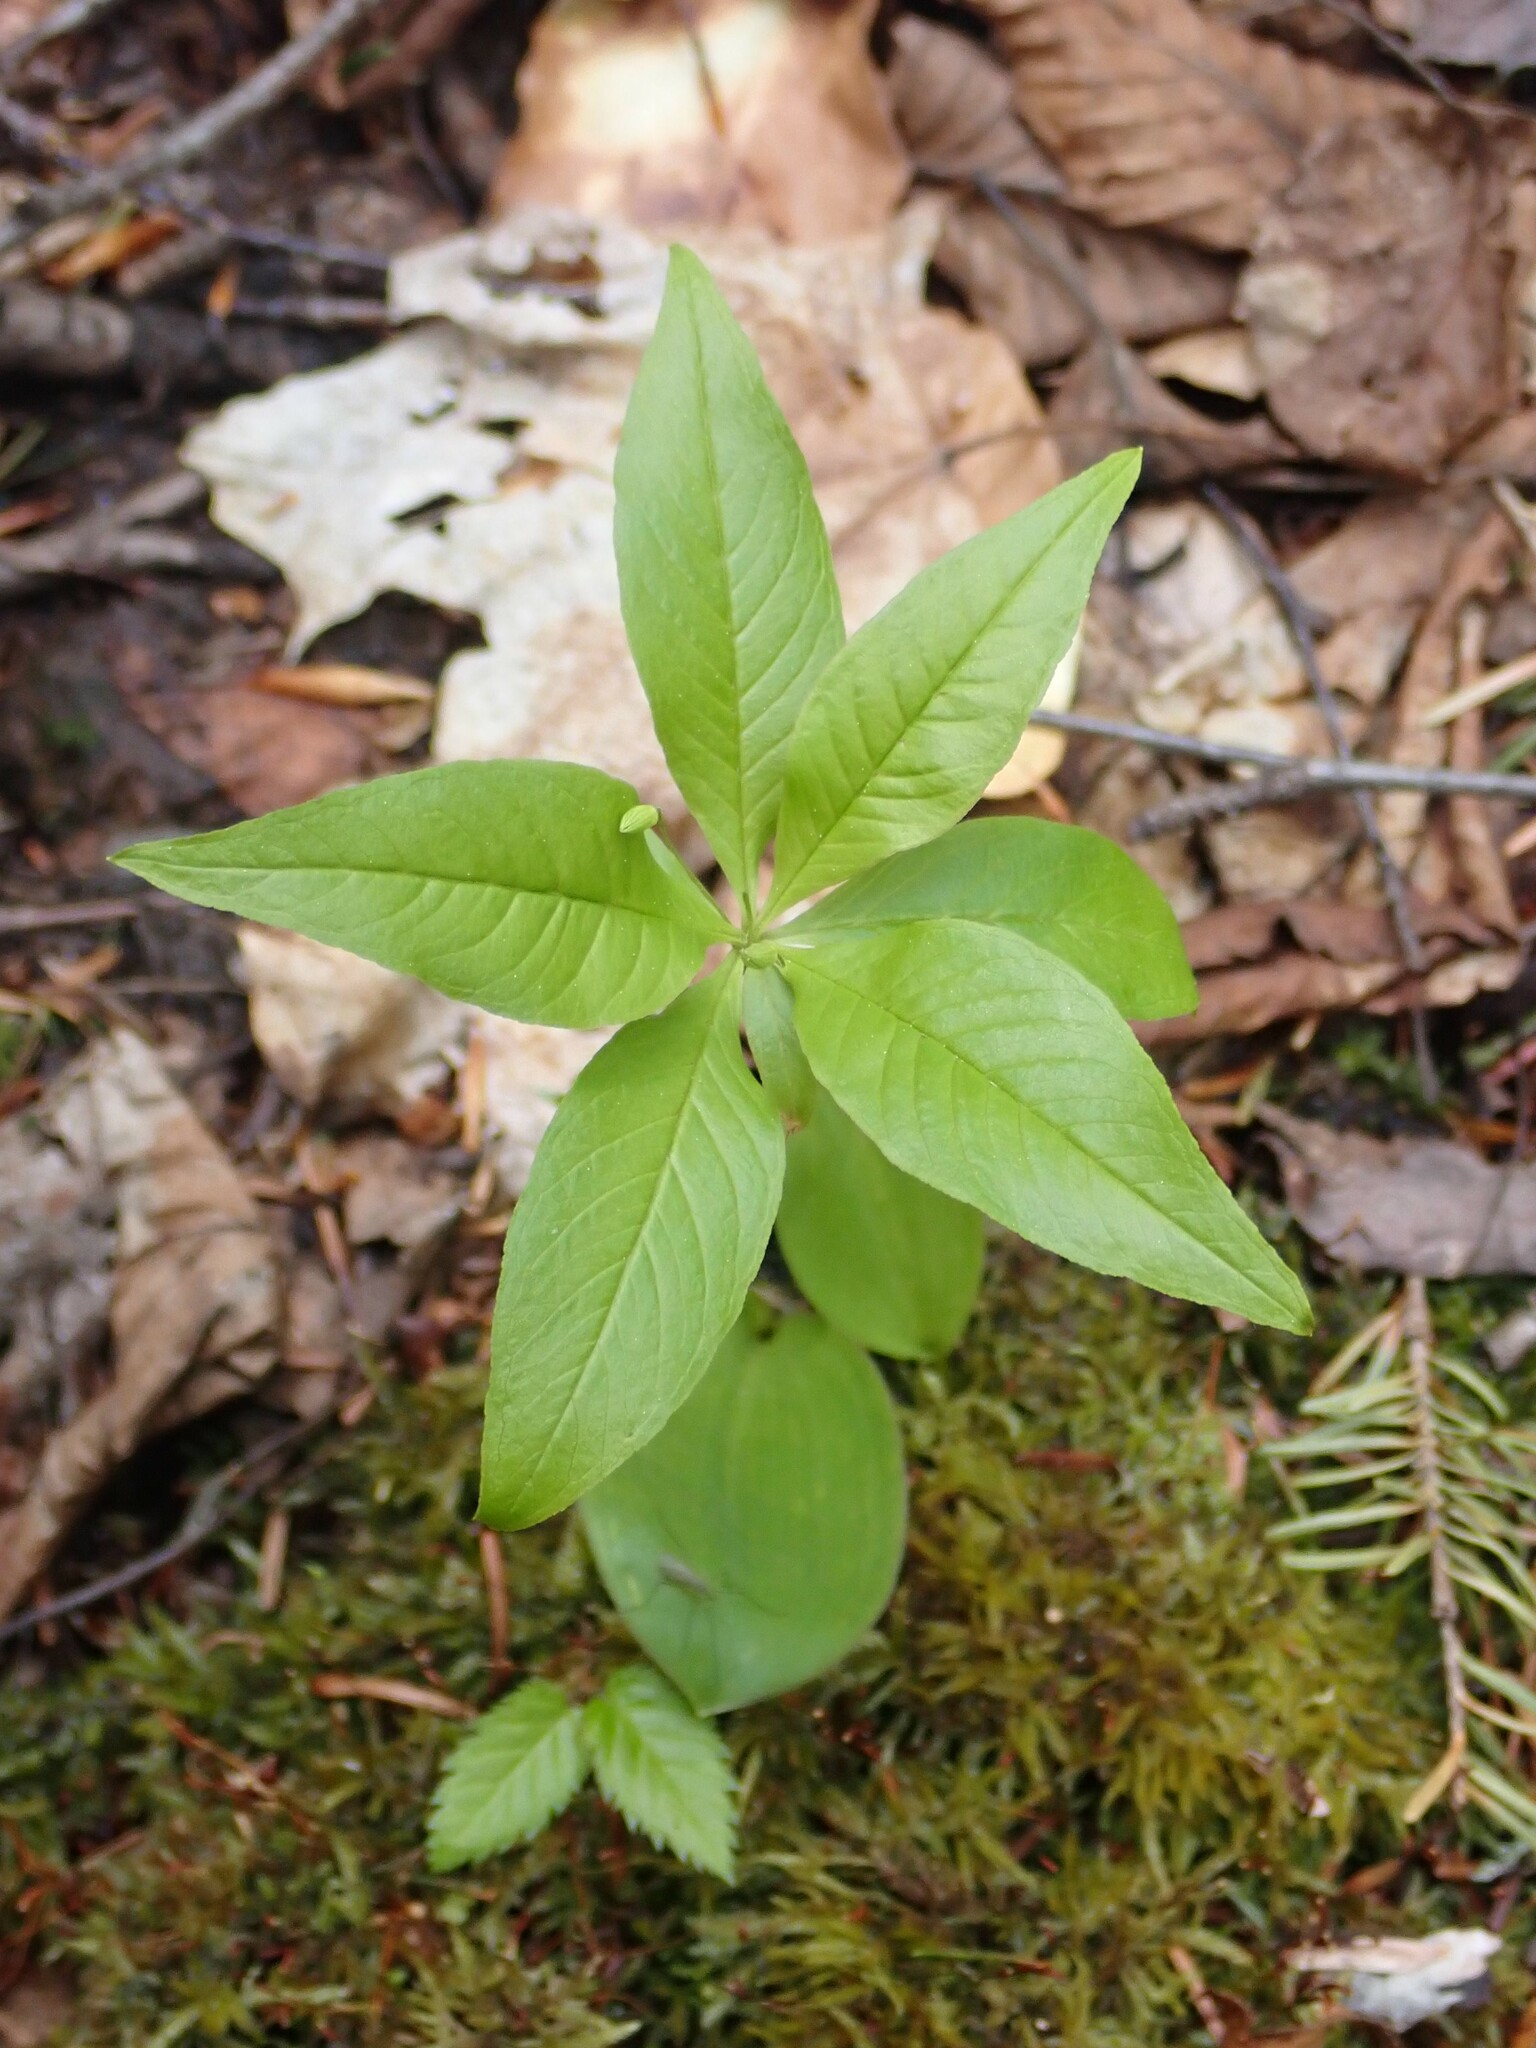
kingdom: Plantae
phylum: Tracheophyta
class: Magnoliopsida
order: Ericales
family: Primulaceae
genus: Lysimachia
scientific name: Lysimachia borealis
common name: American starflower
